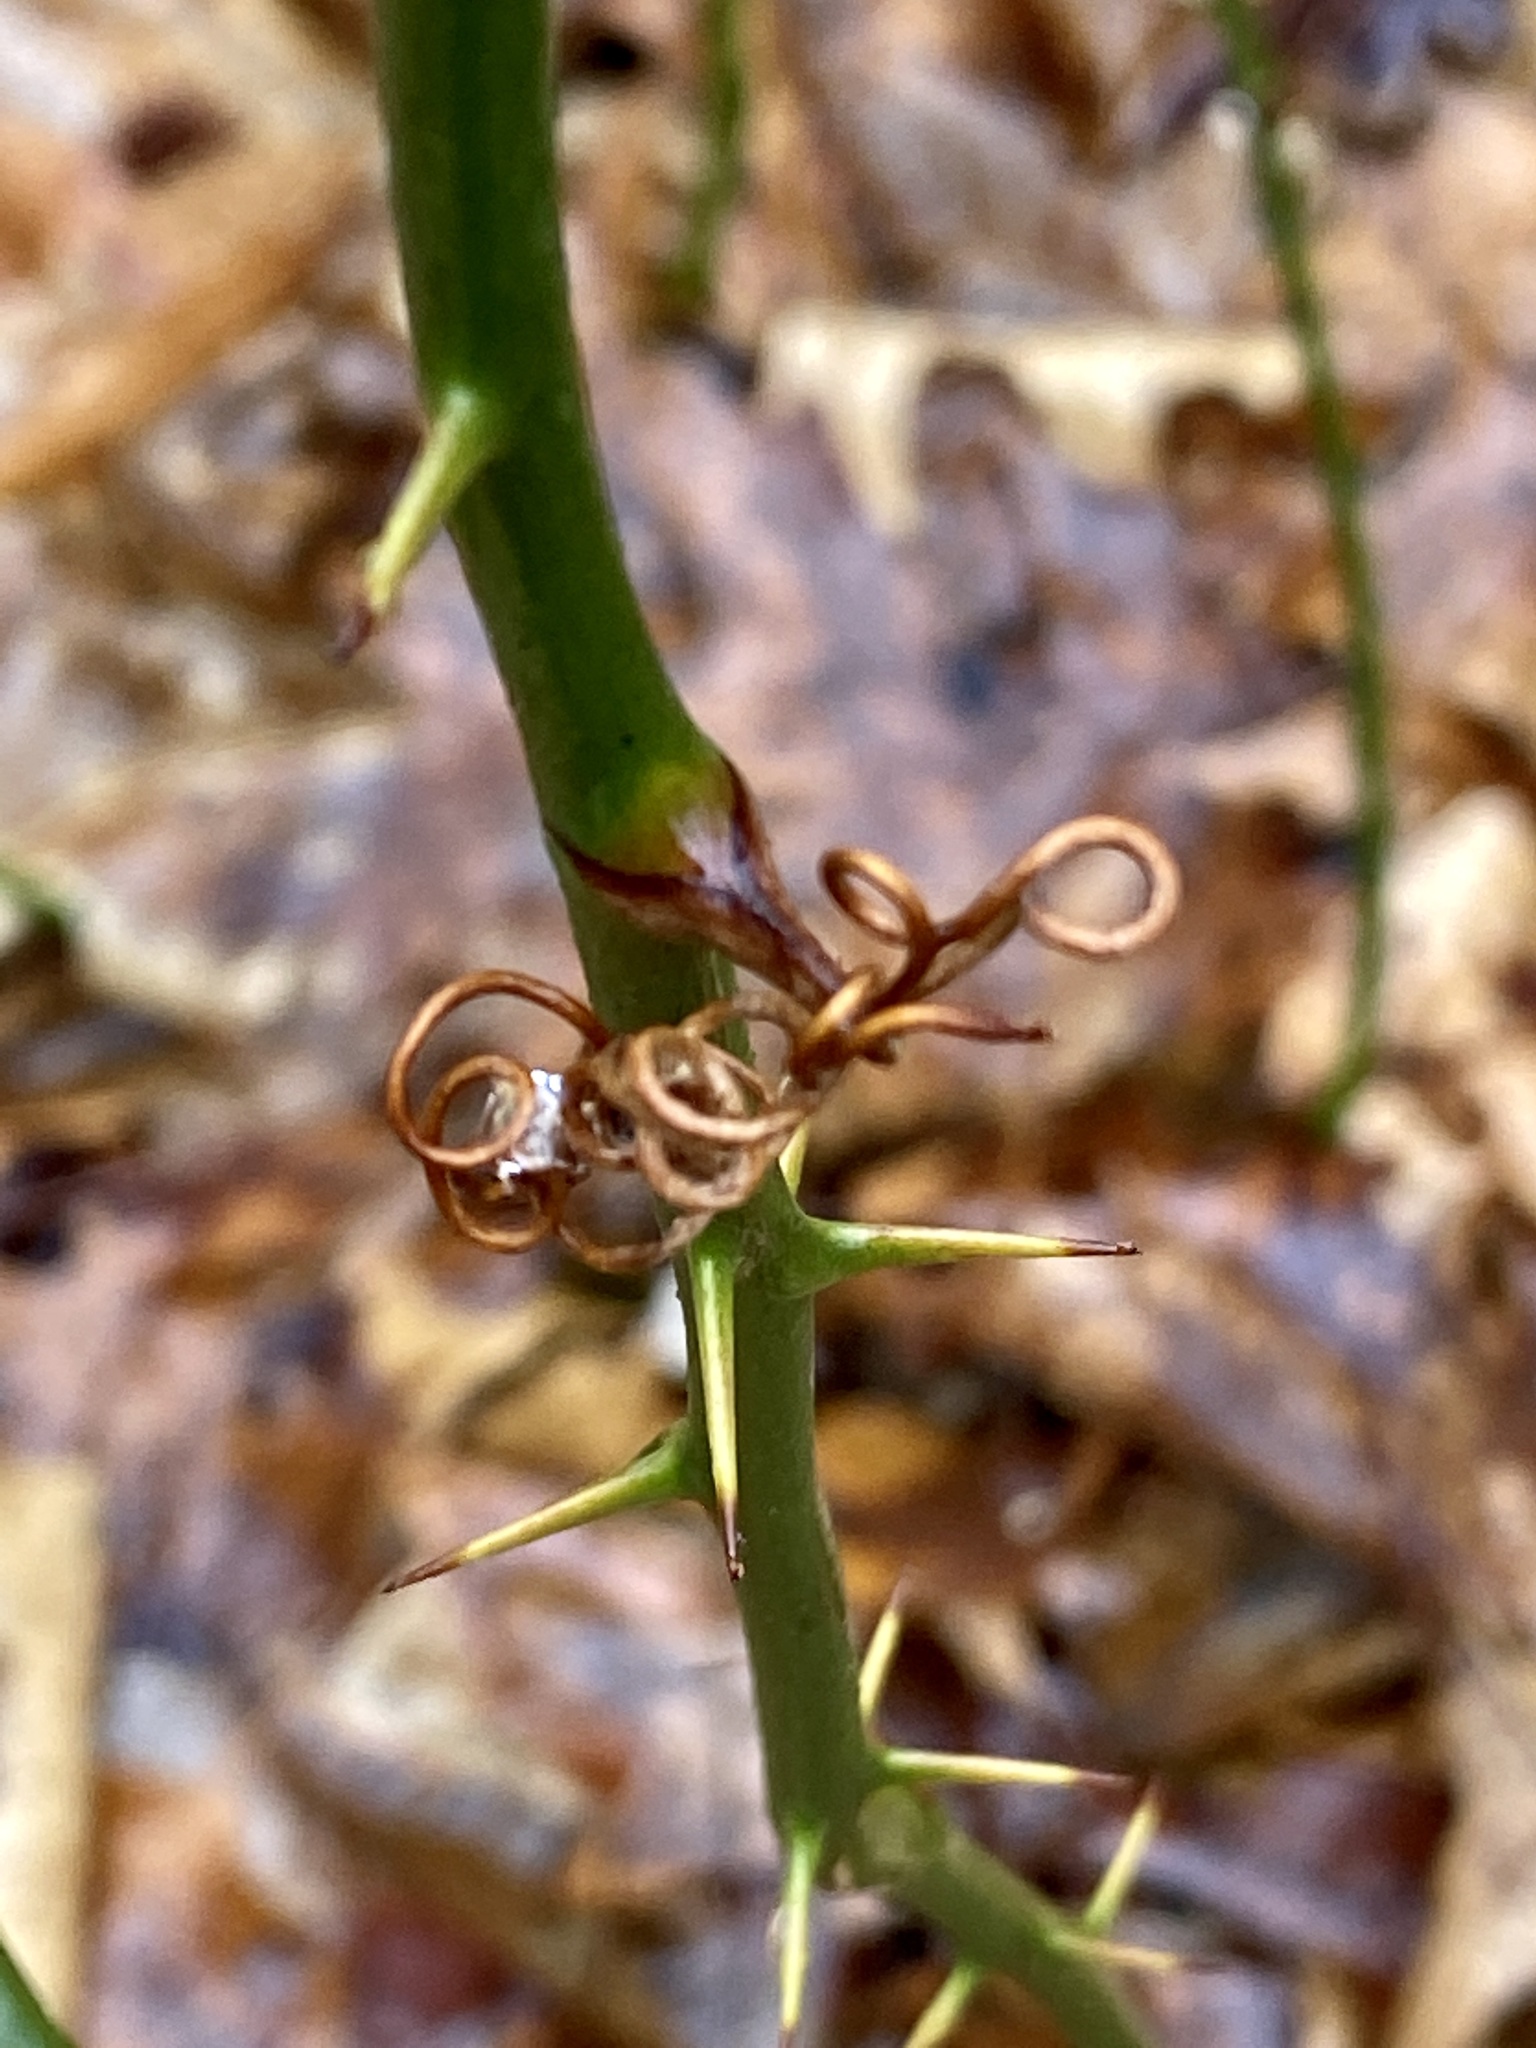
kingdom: Plantae
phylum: Tracheophyta
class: Liliopsida
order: Liliales
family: Smilacaceae
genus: Smilax
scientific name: Smilax rotundifolia
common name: Bullbriar
